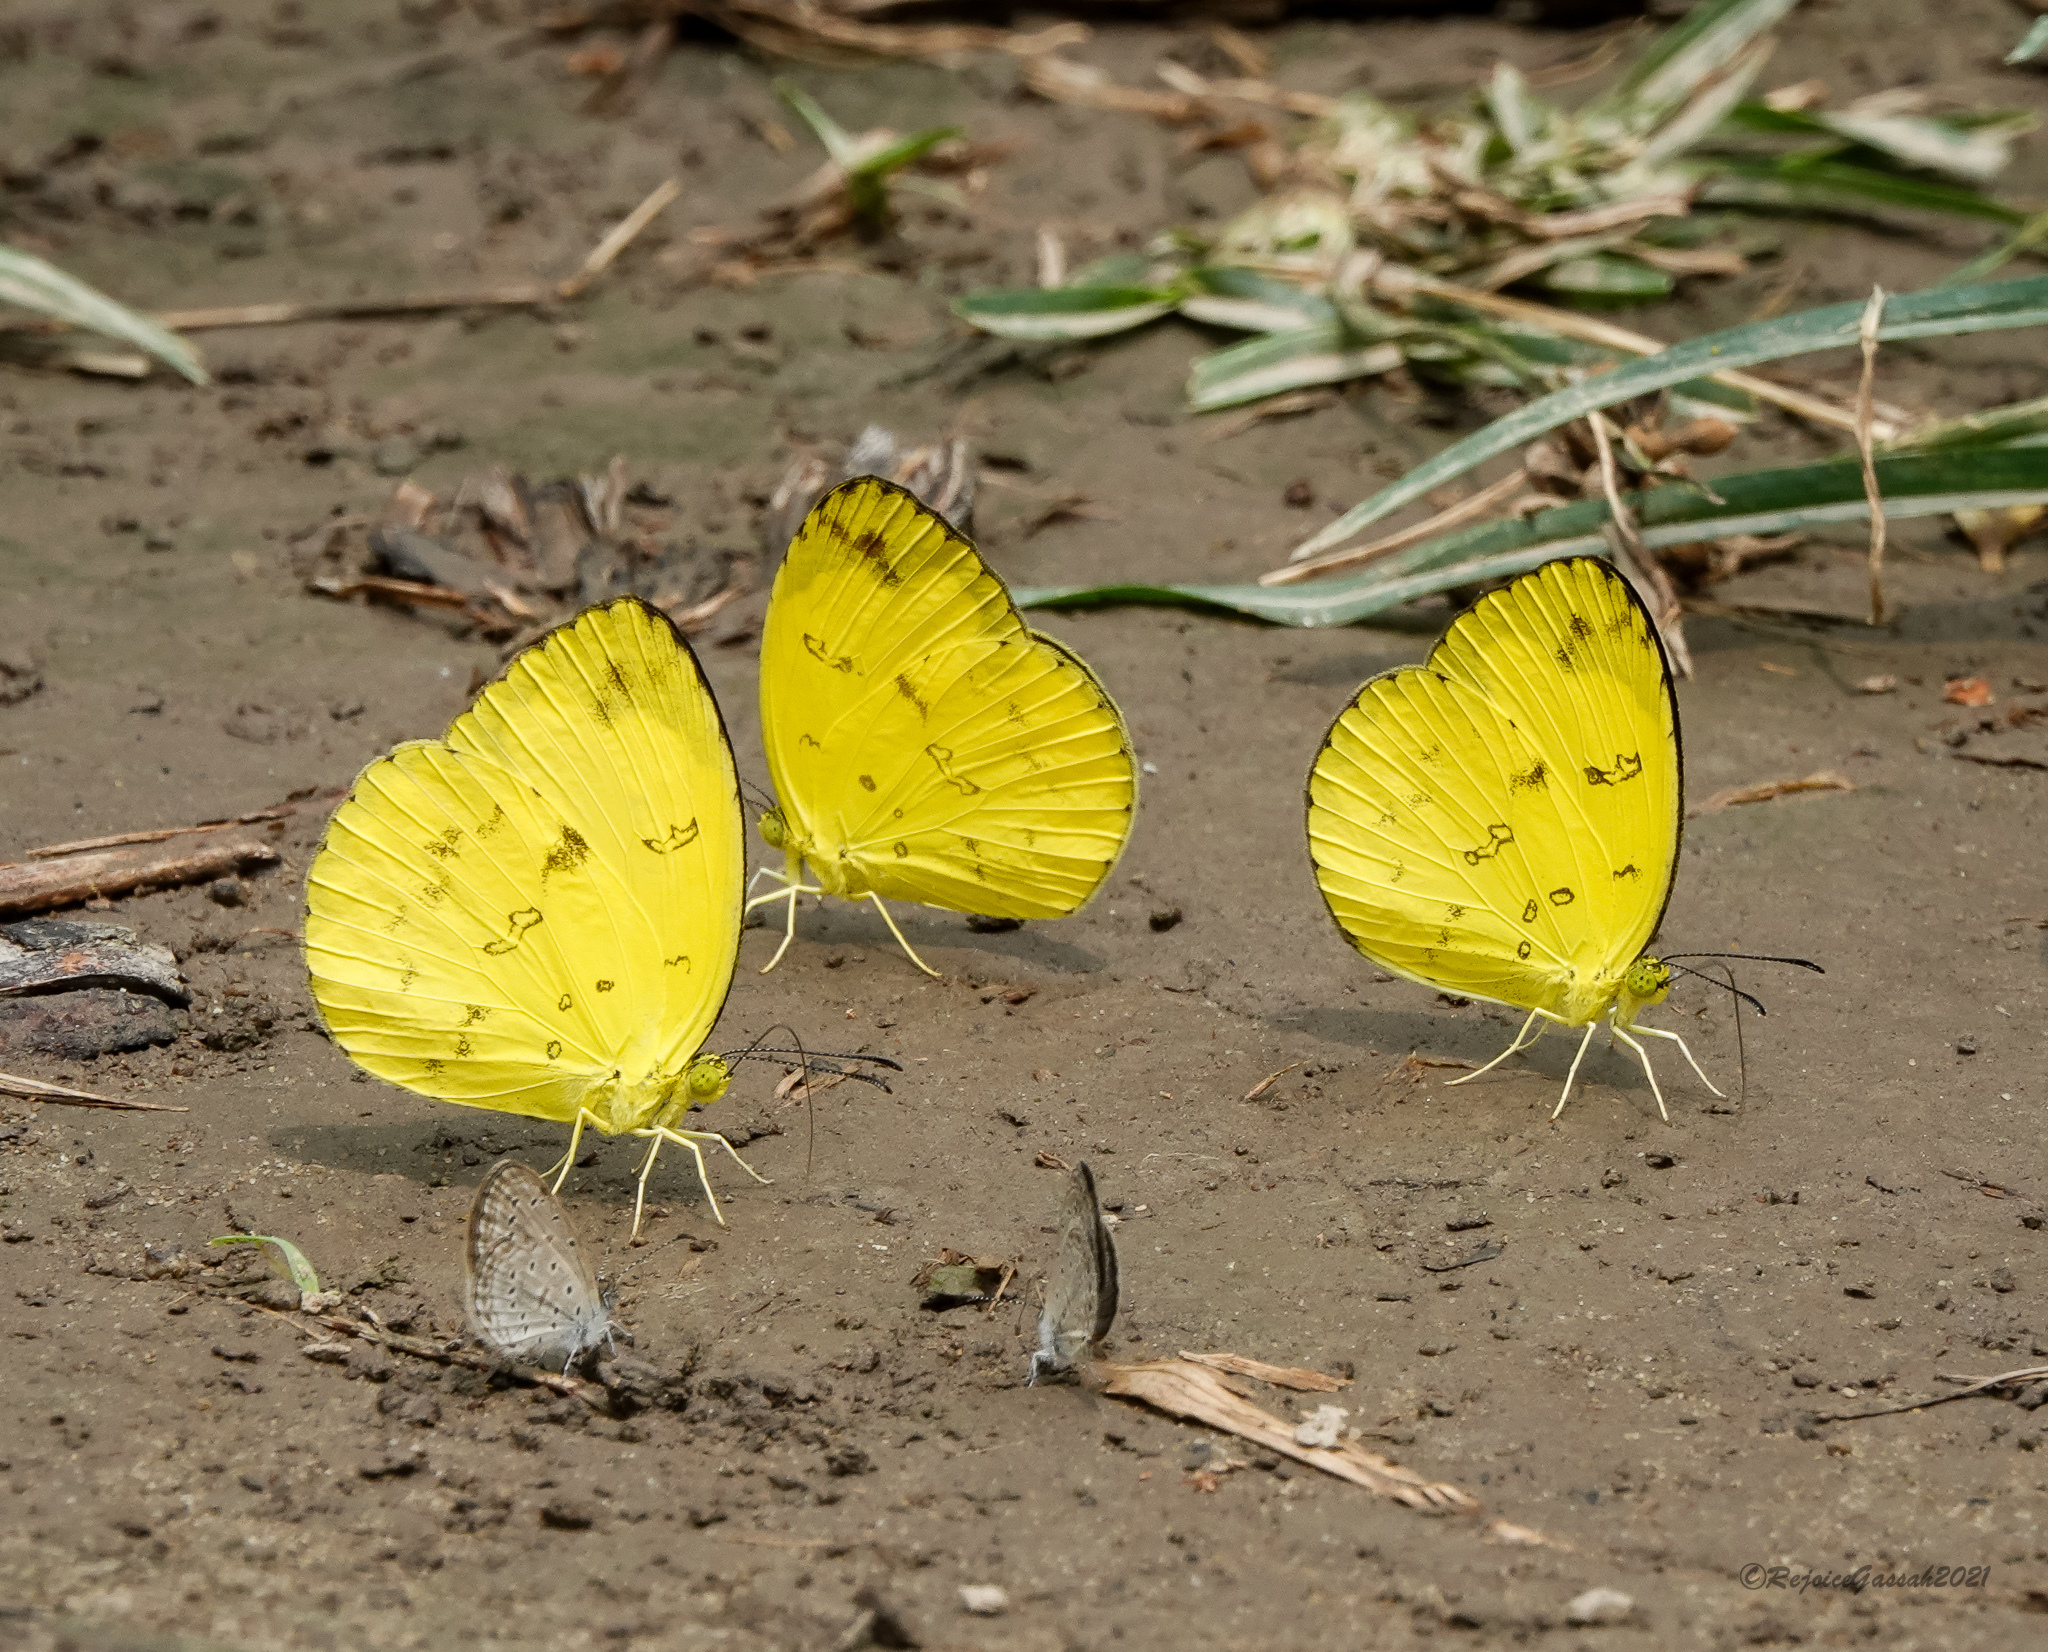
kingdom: Animalia
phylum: Arthropoda
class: Insecta
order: Lepidoptera
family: Pieridae
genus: Eurema
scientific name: Eurema andersoni
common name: One-spot yellow grass
